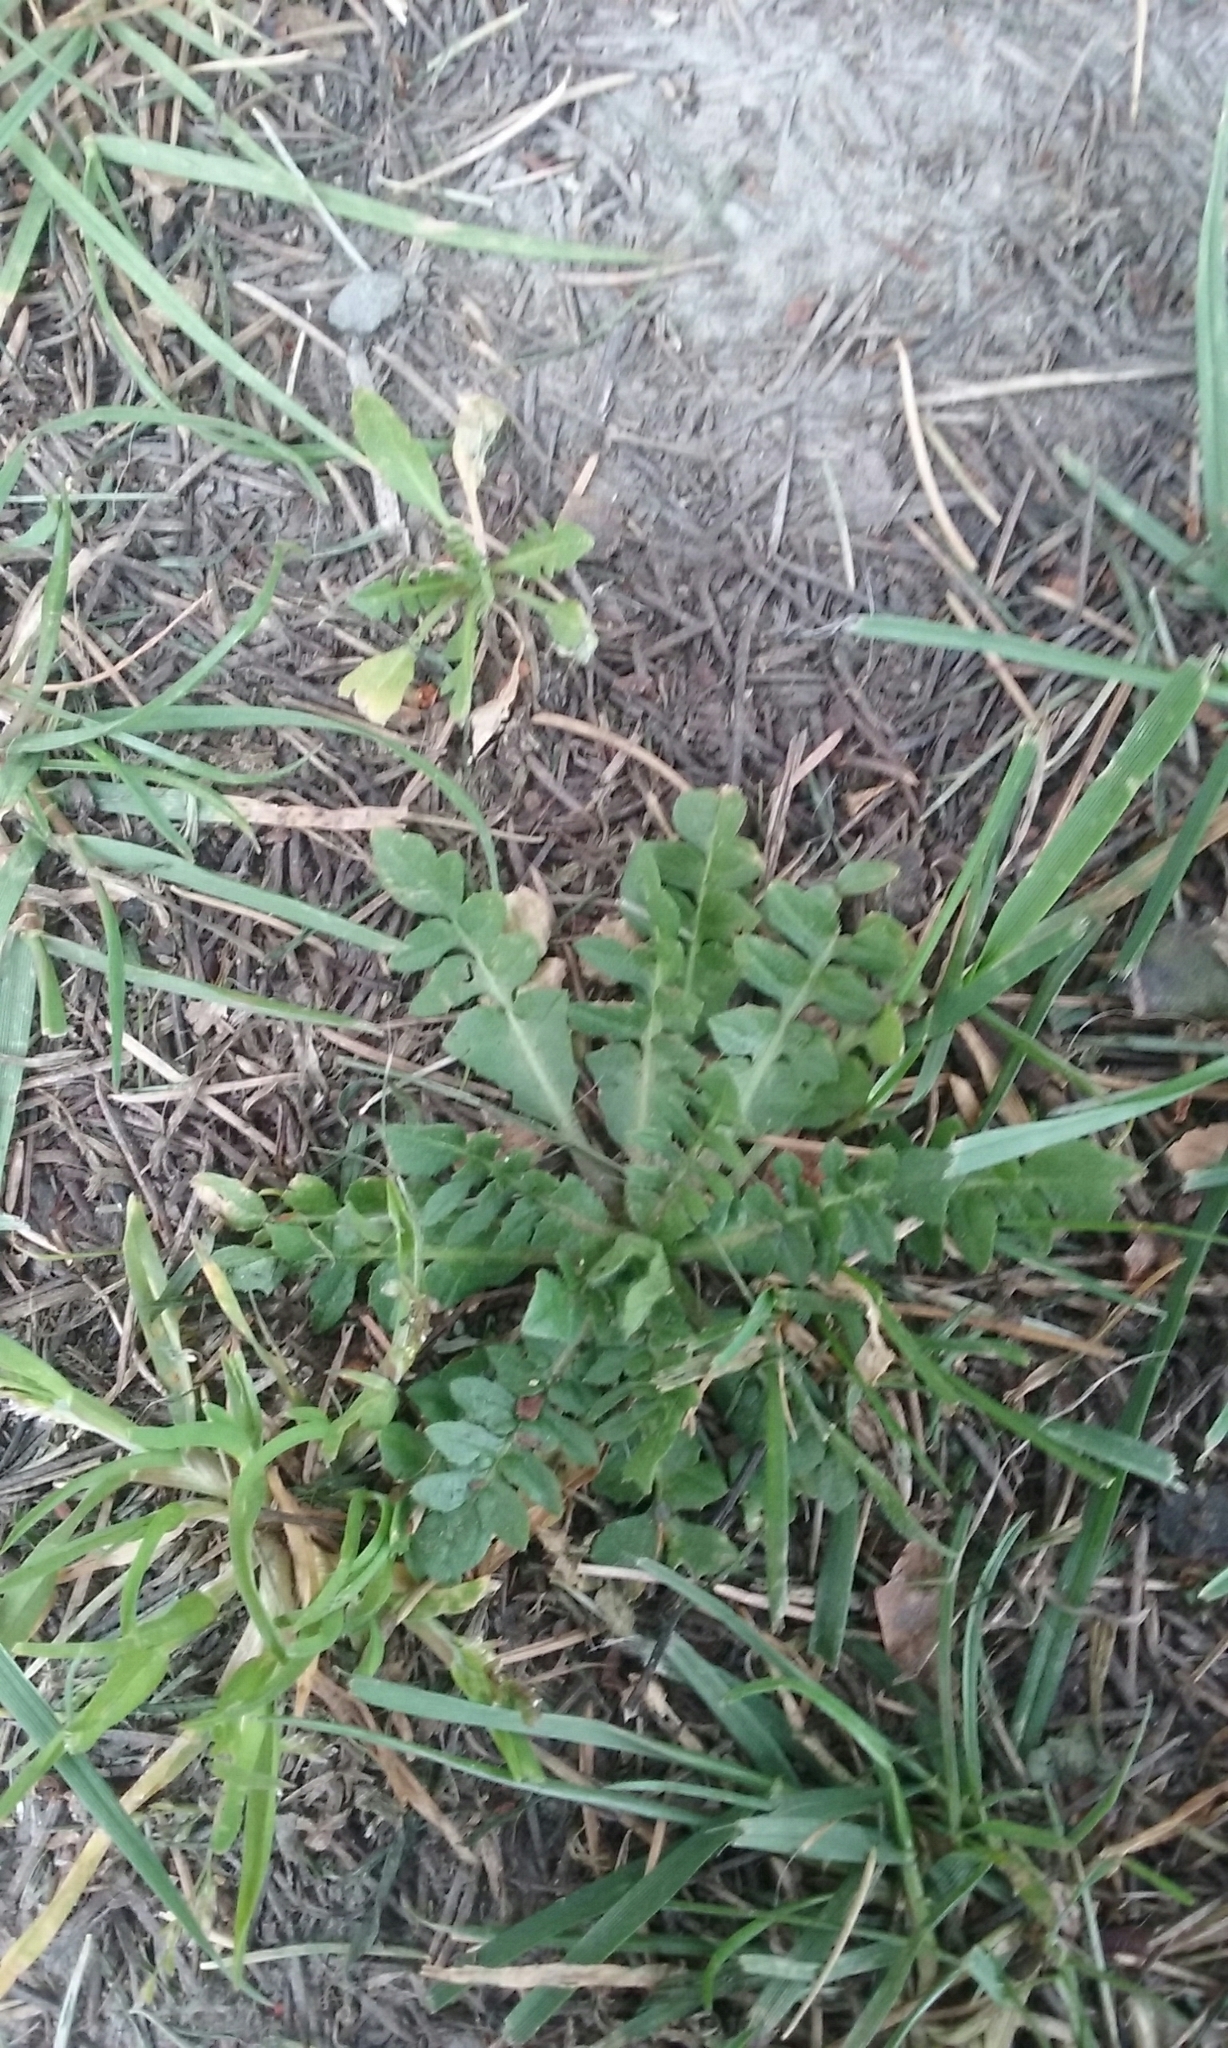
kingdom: Plantae
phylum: Tracheophyta
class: Magnoliopsida
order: Brassicales
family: Brassicaceae
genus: Capsella
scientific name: Capsella bursa-pastoris
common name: Shepherd's purse
